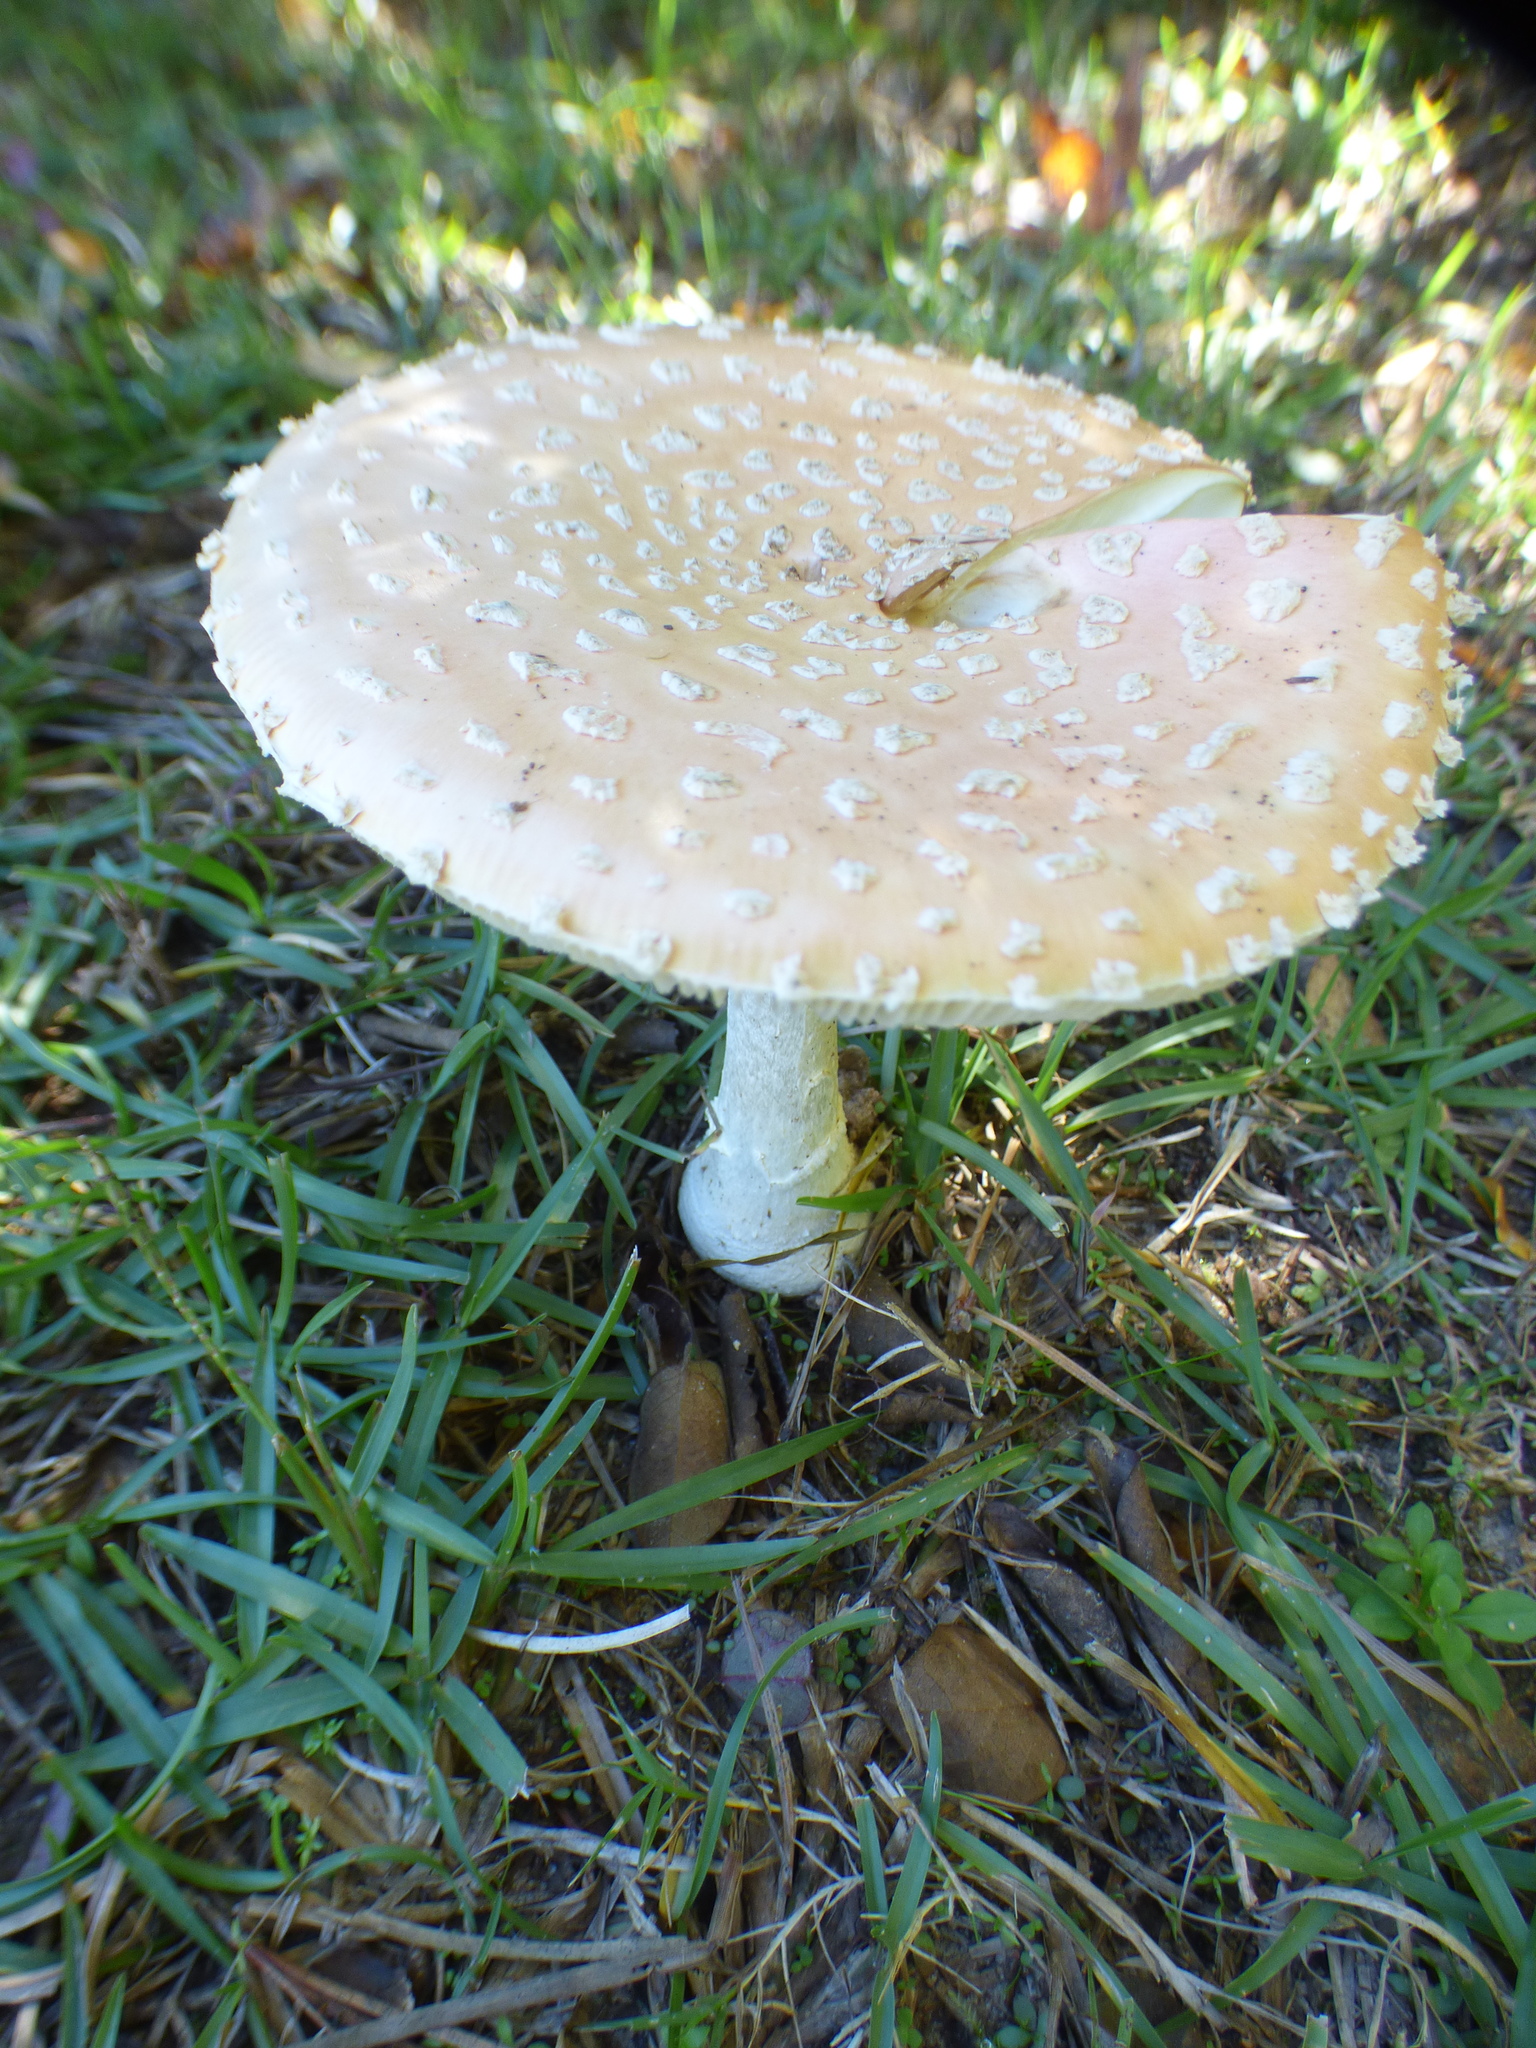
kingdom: Fungi
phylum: Basidiomycota
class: Agaricomycetes
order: Agaricales
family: Amanitaceae
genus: Amanita
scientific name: Amanita persicina
